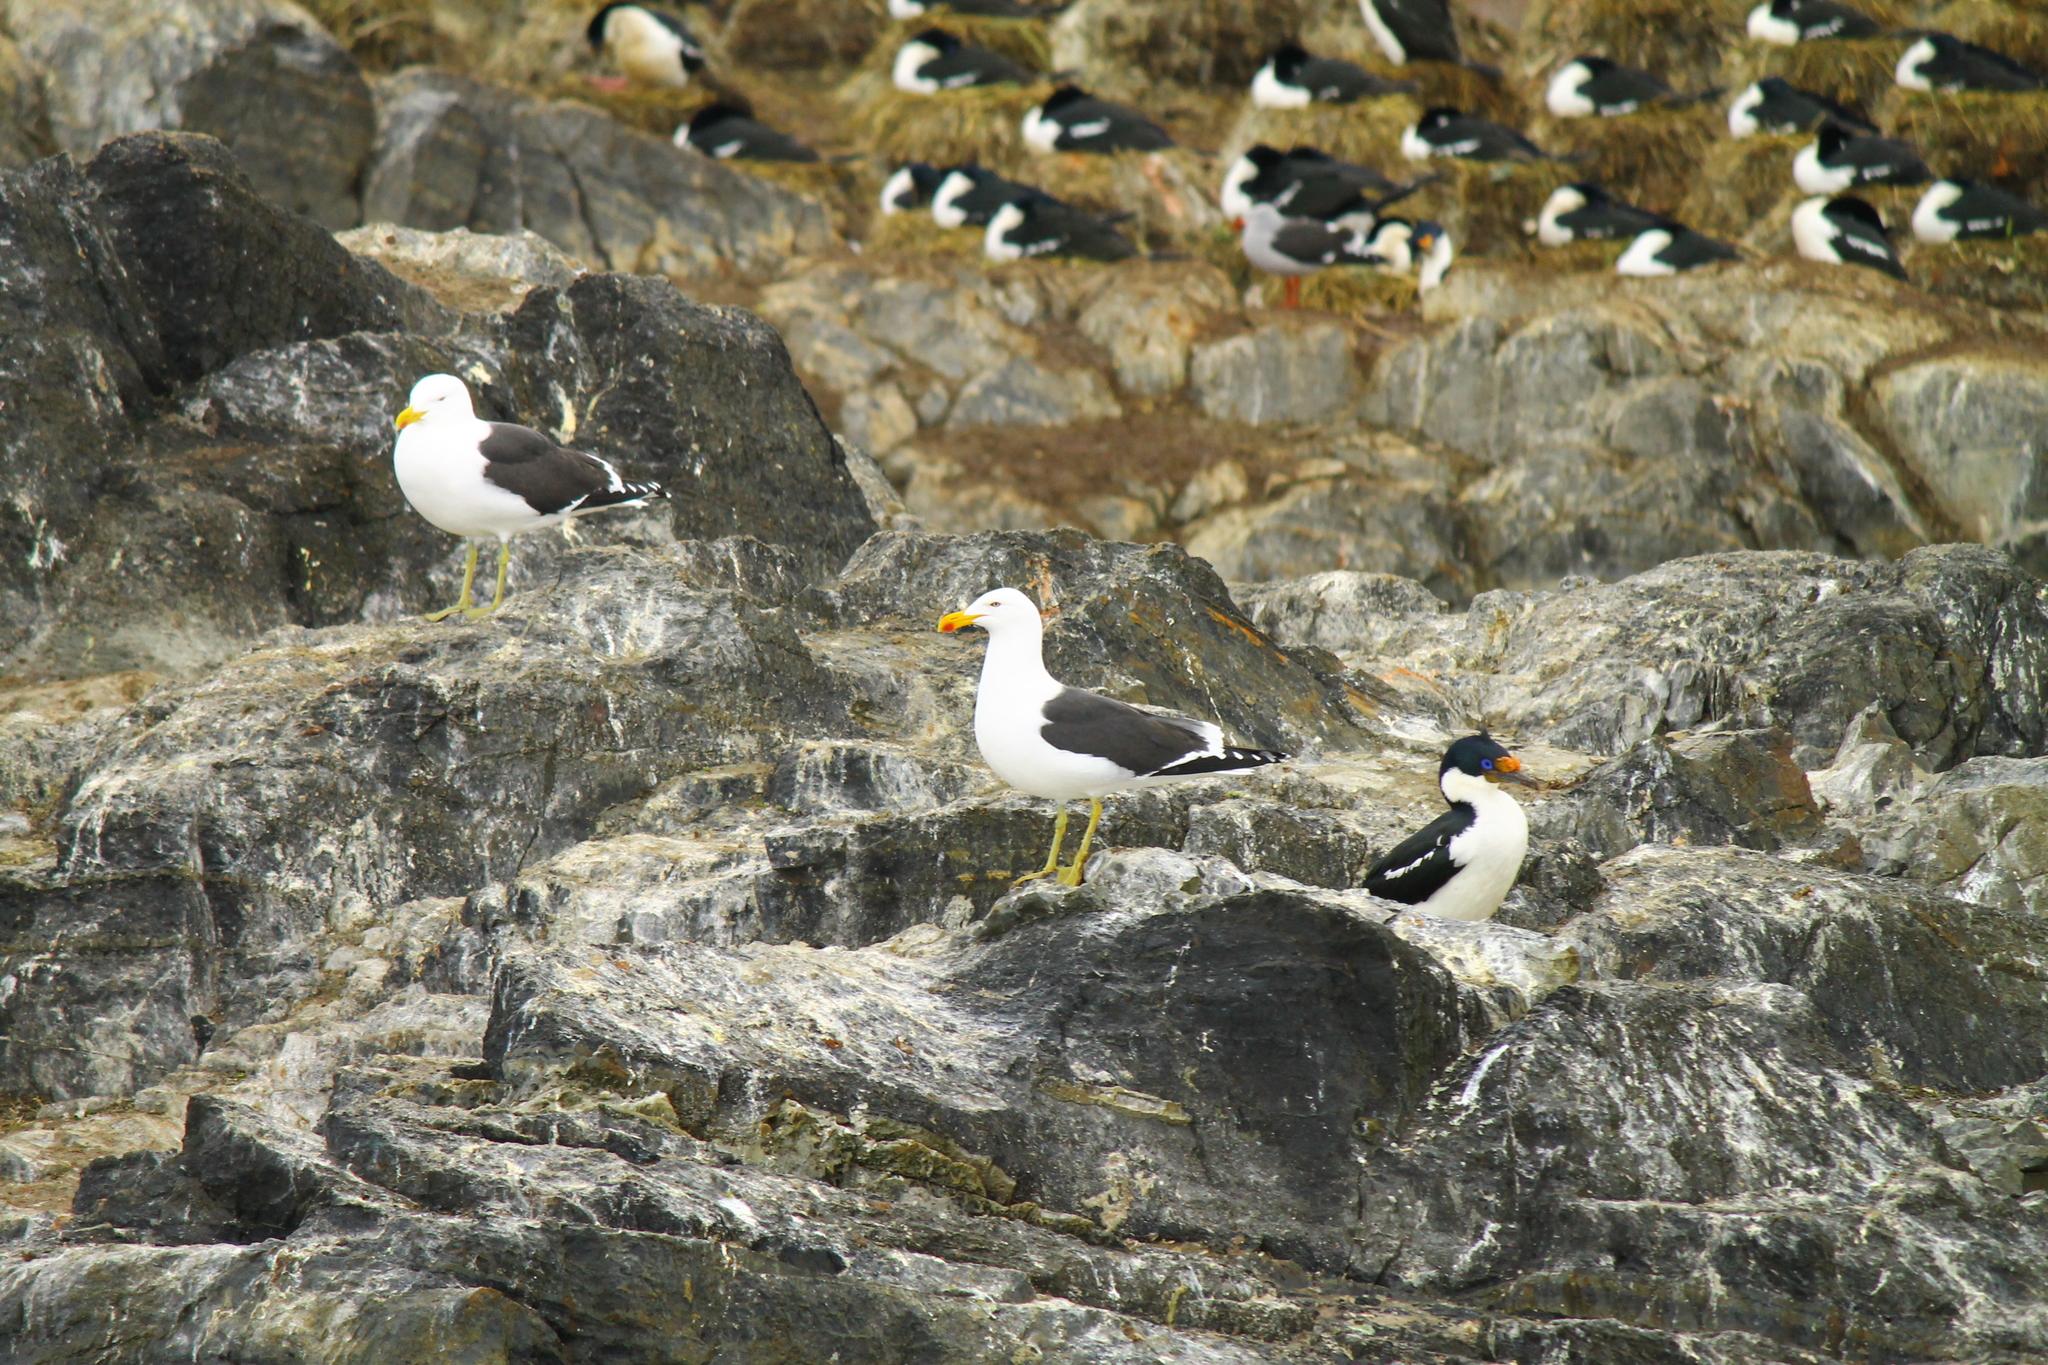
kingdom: Animalia
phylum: Chordata
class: Aves
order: Charadriiformes
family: Laridae
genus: Larus
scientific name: Larus dominicanus
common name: Kelp gull
